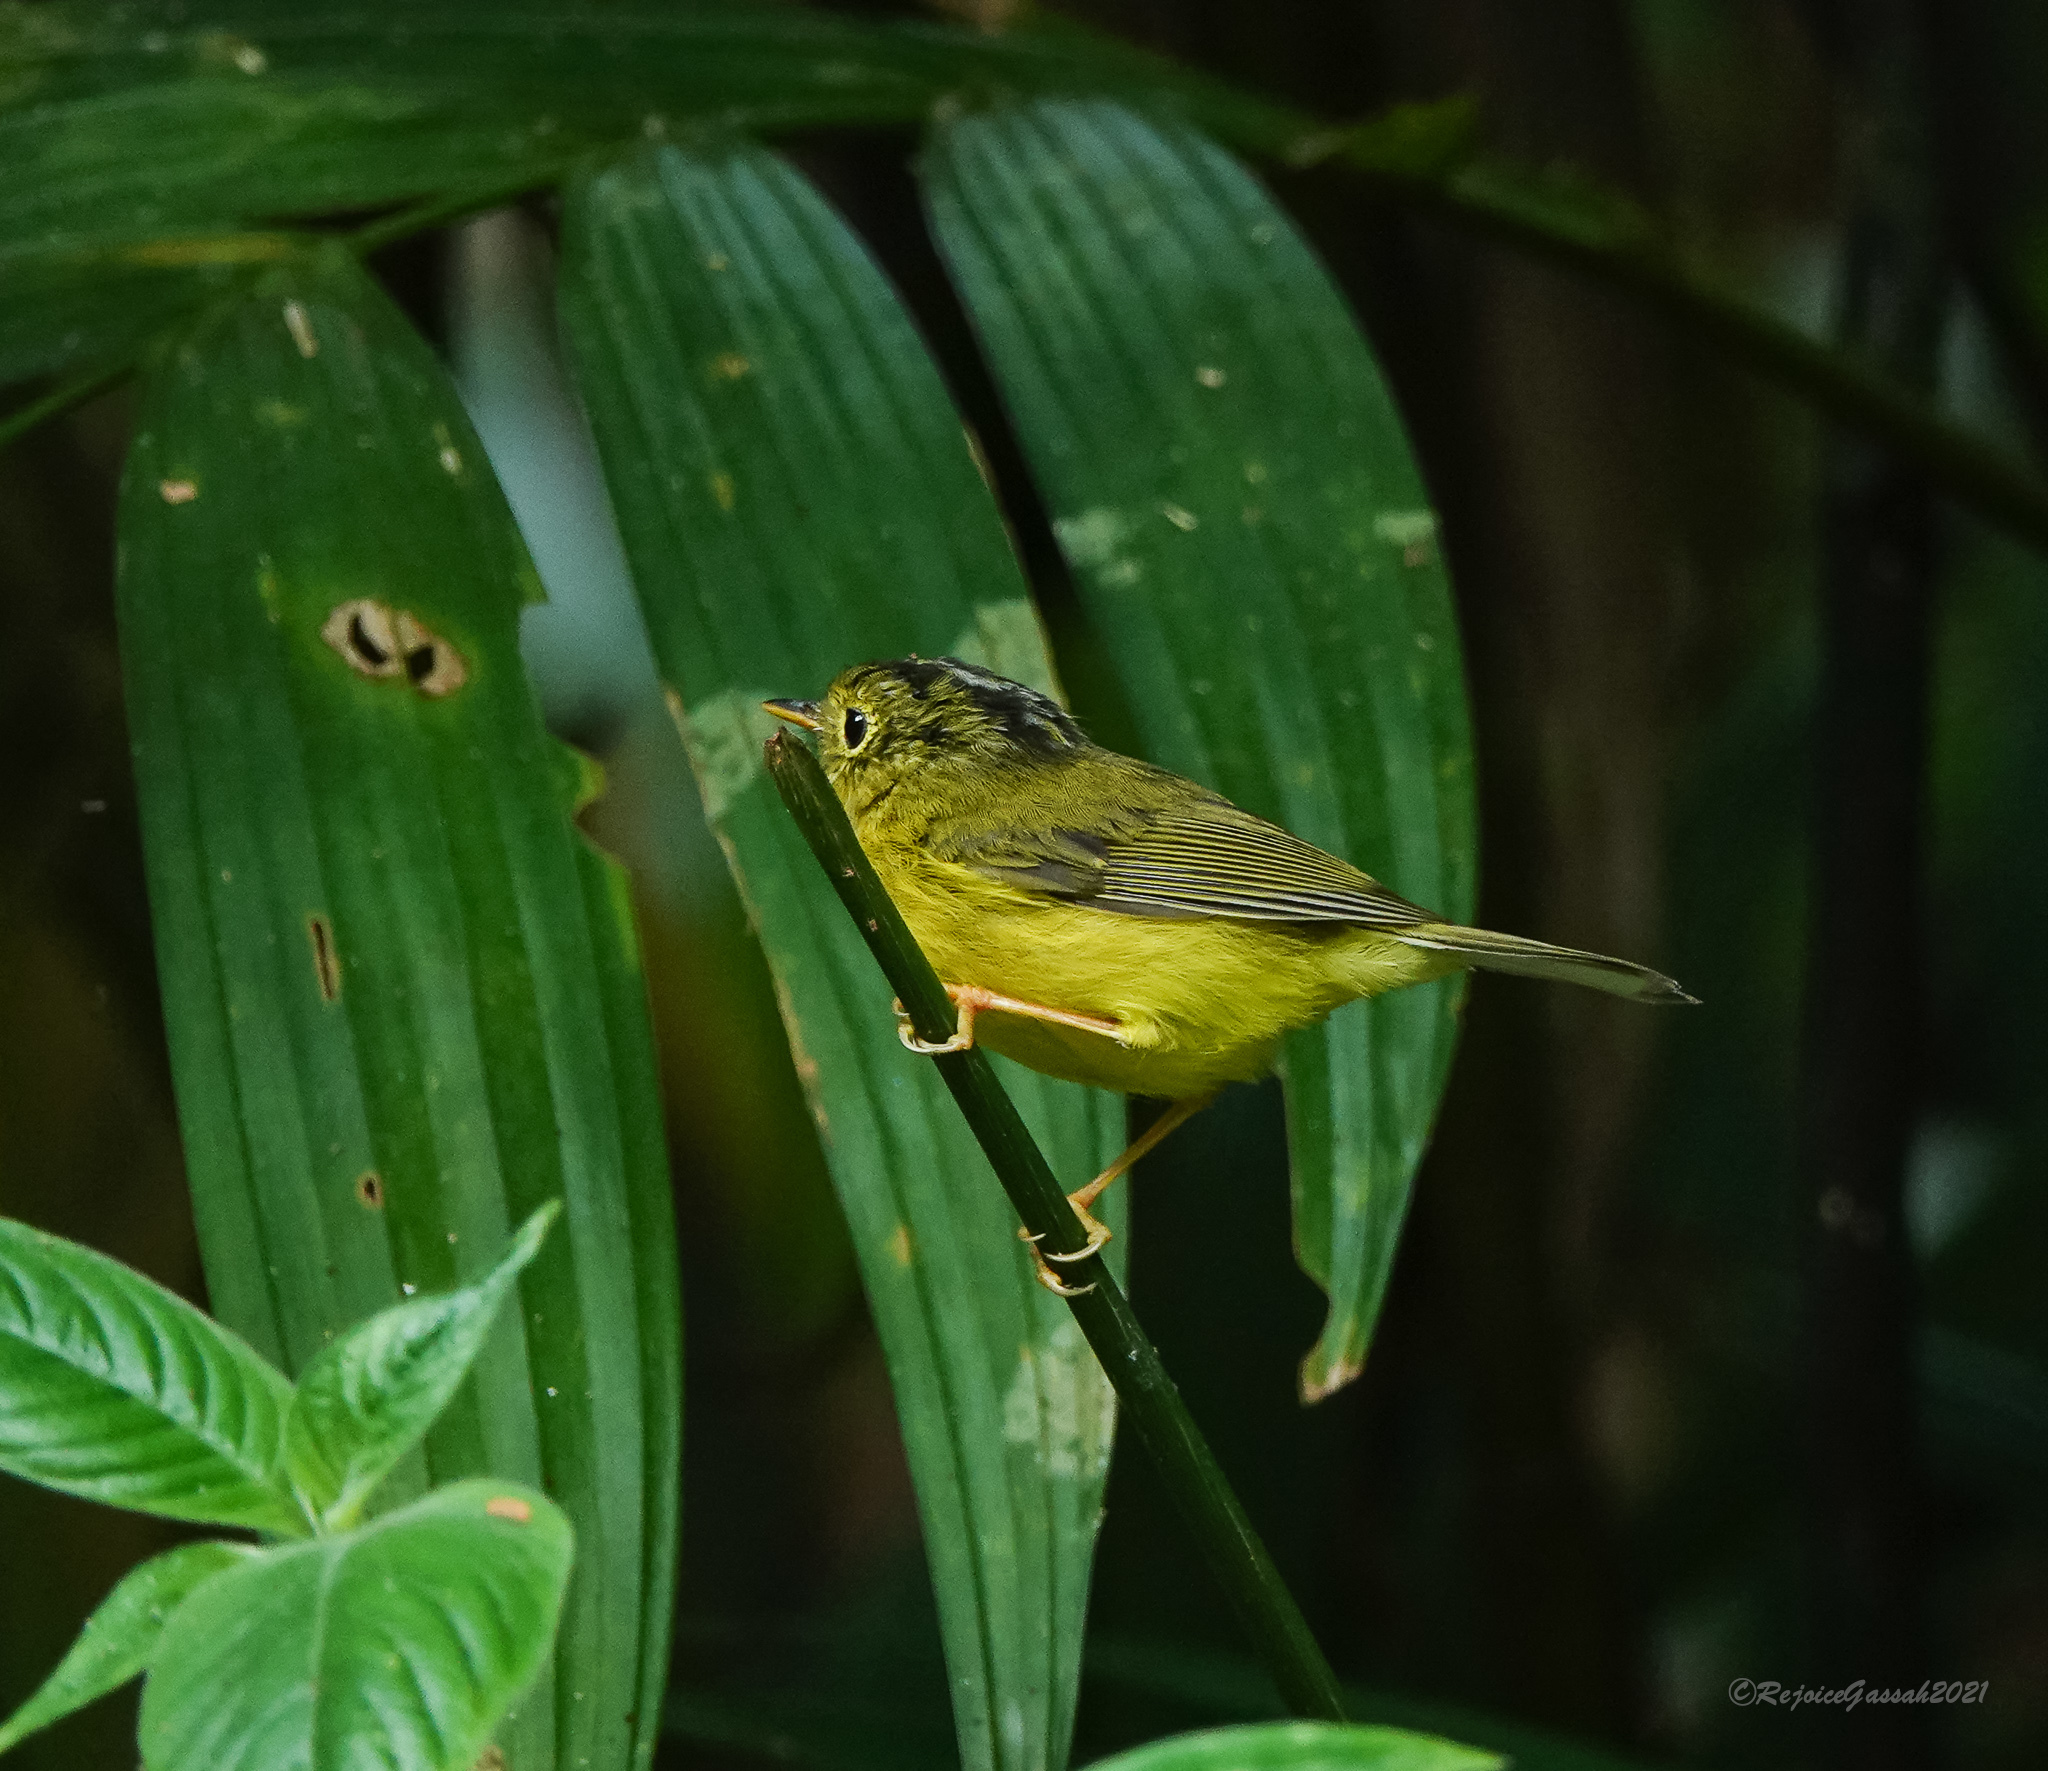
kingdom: Animalia
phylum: Chordata
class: Aves
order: Passeriformes
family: Phylloscopidae
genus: Seicercus
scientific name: Seicercus burkii
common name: Green-crowned warbler
